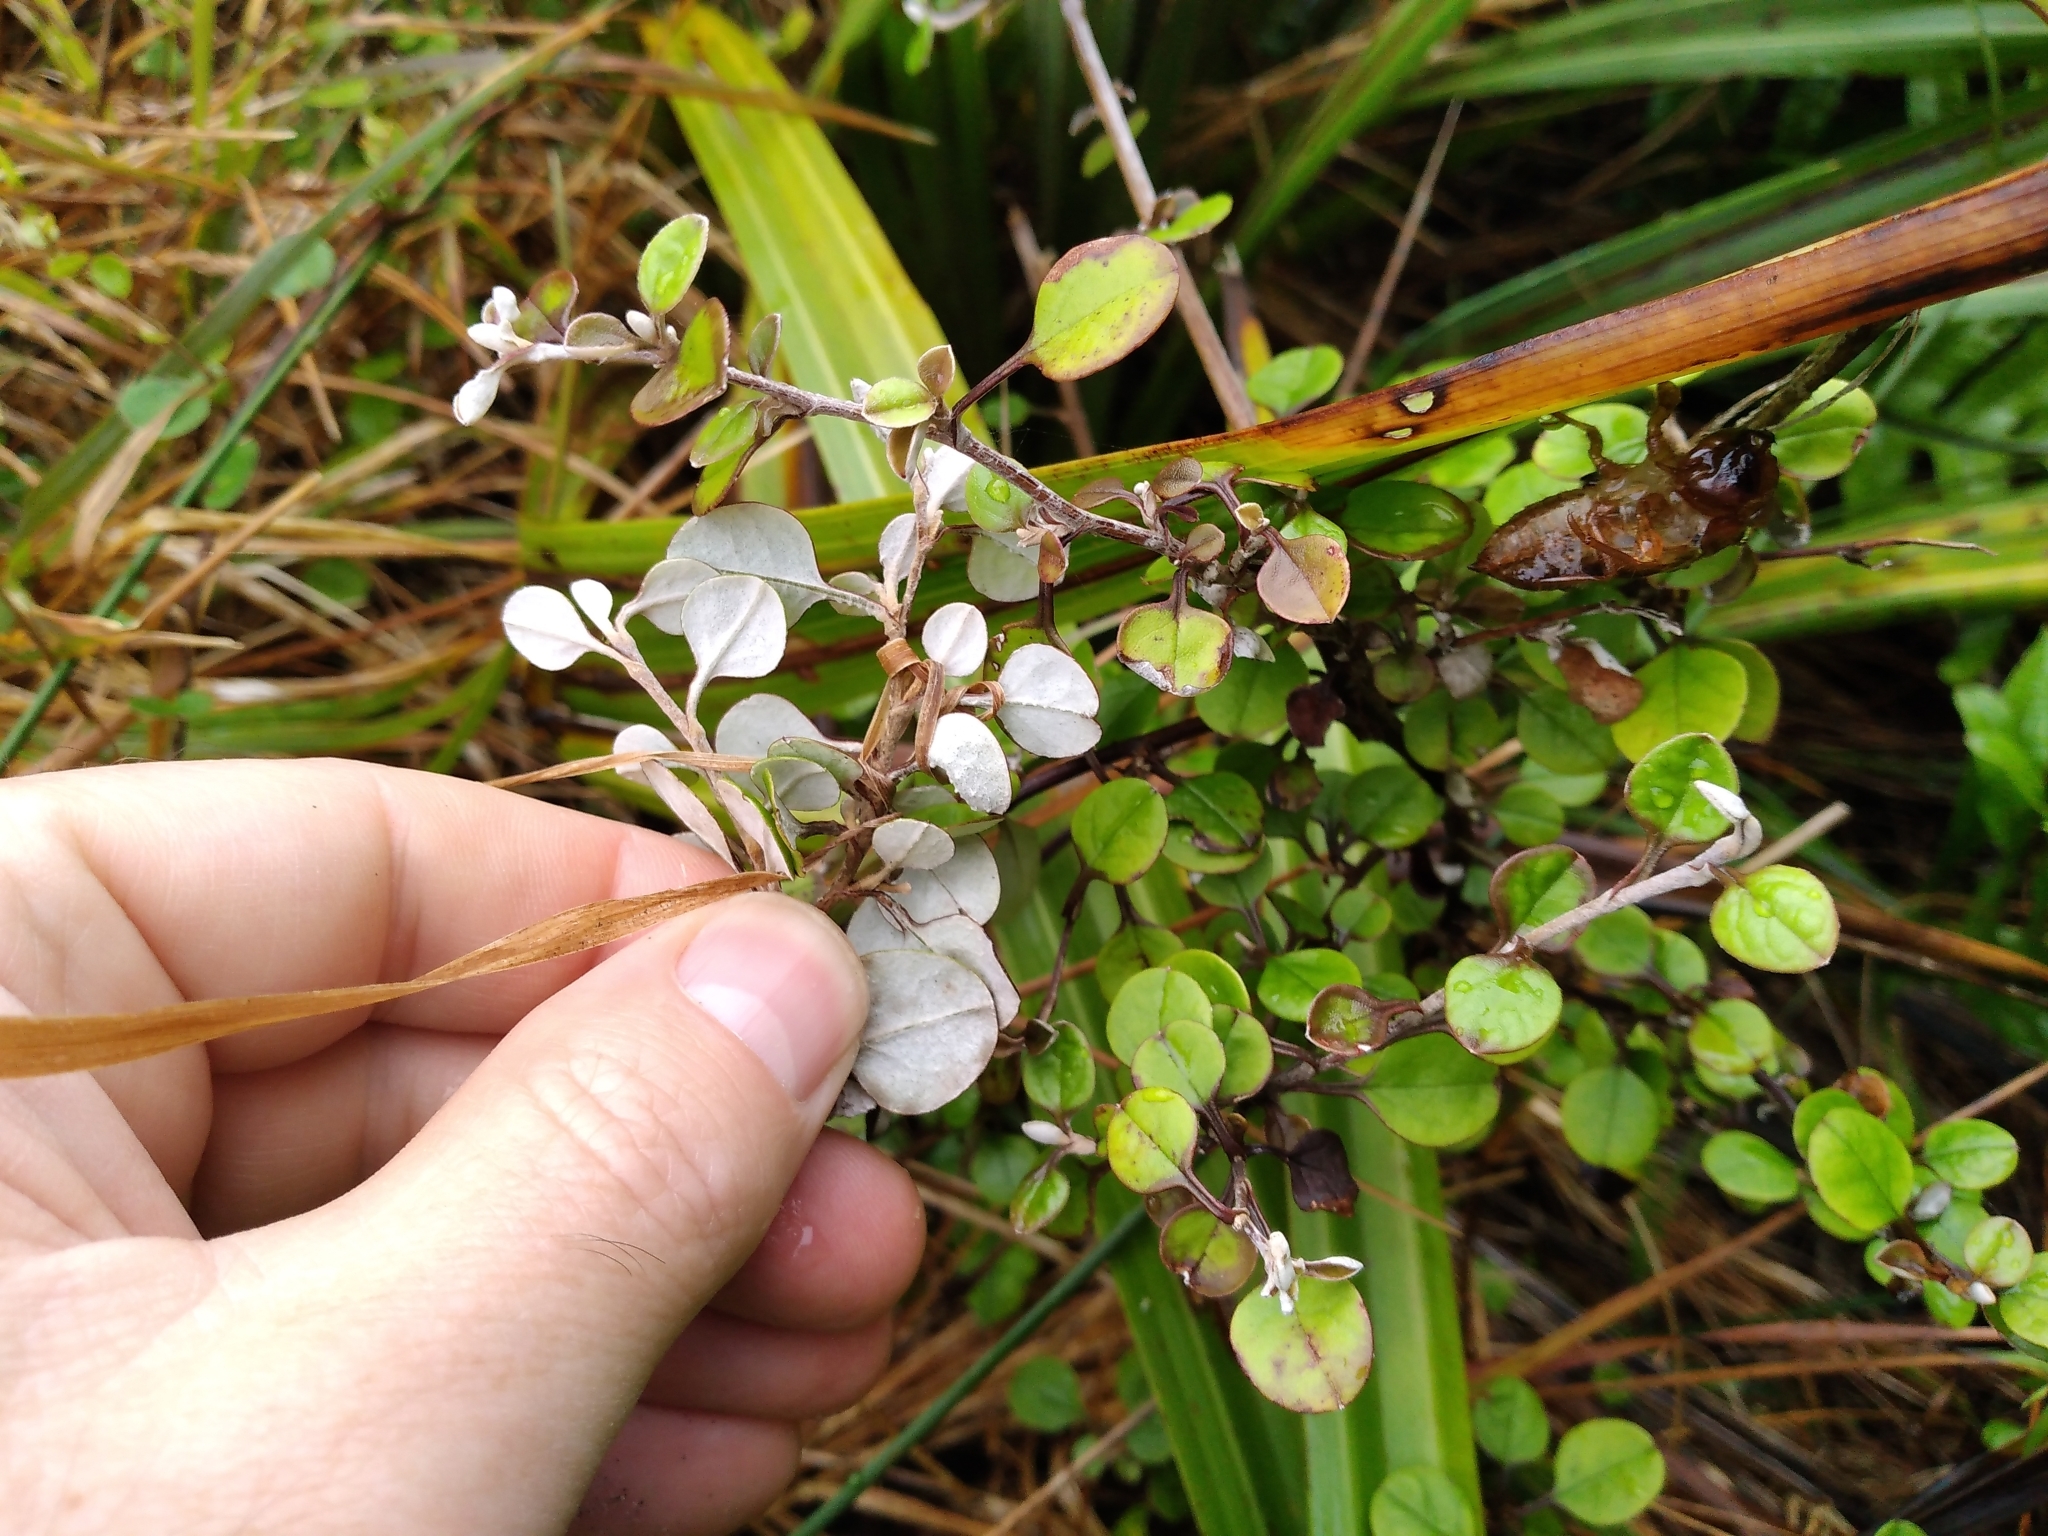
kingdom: Plantae
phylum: Tracheophyta
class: Magnoliopsida
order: Asterales
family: Asteraceae
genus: Ozothamnus
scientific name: Ozothamnus glomeratus
